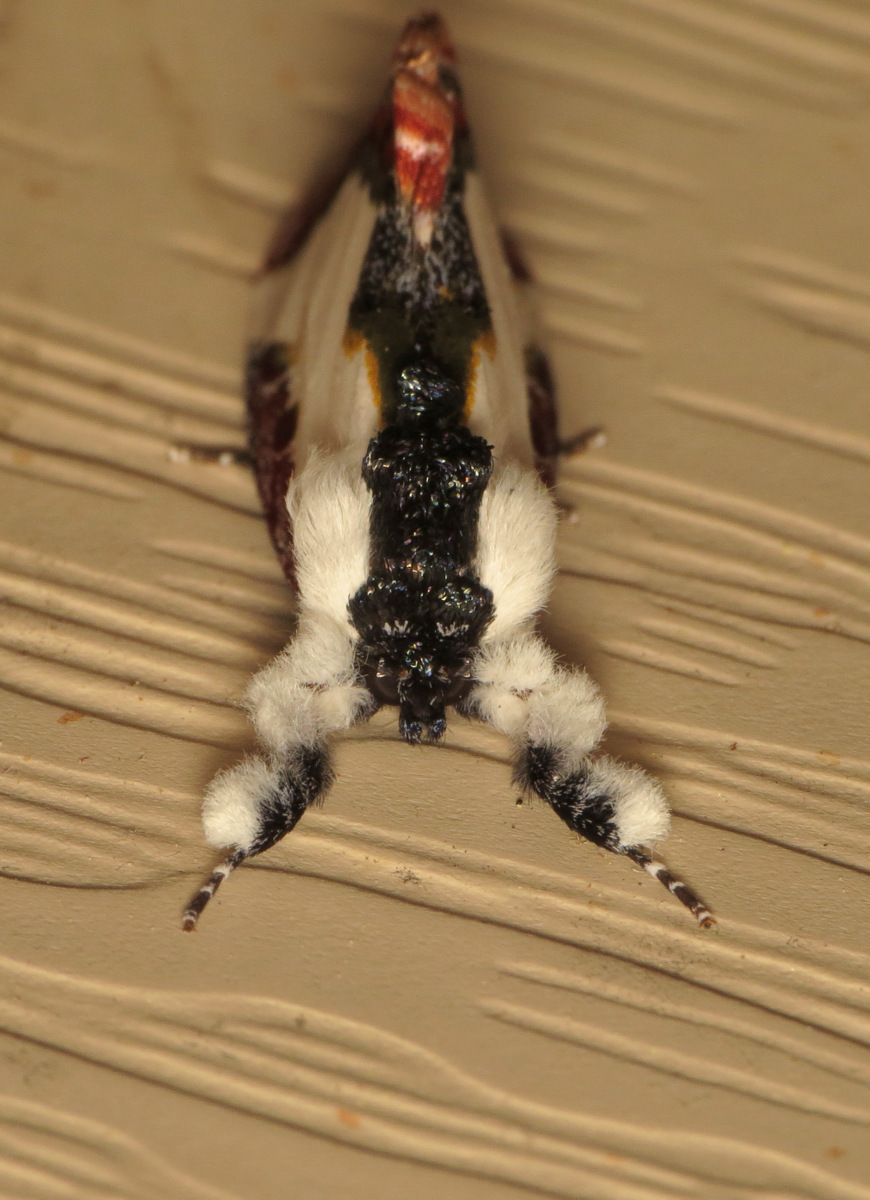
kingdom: Animalia
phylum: Arthropoda
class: Insecta
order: Lepidoptera
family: Noctuidae
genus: Eudryas
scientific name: Eudryas unio
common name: Pearly wood-nymph
